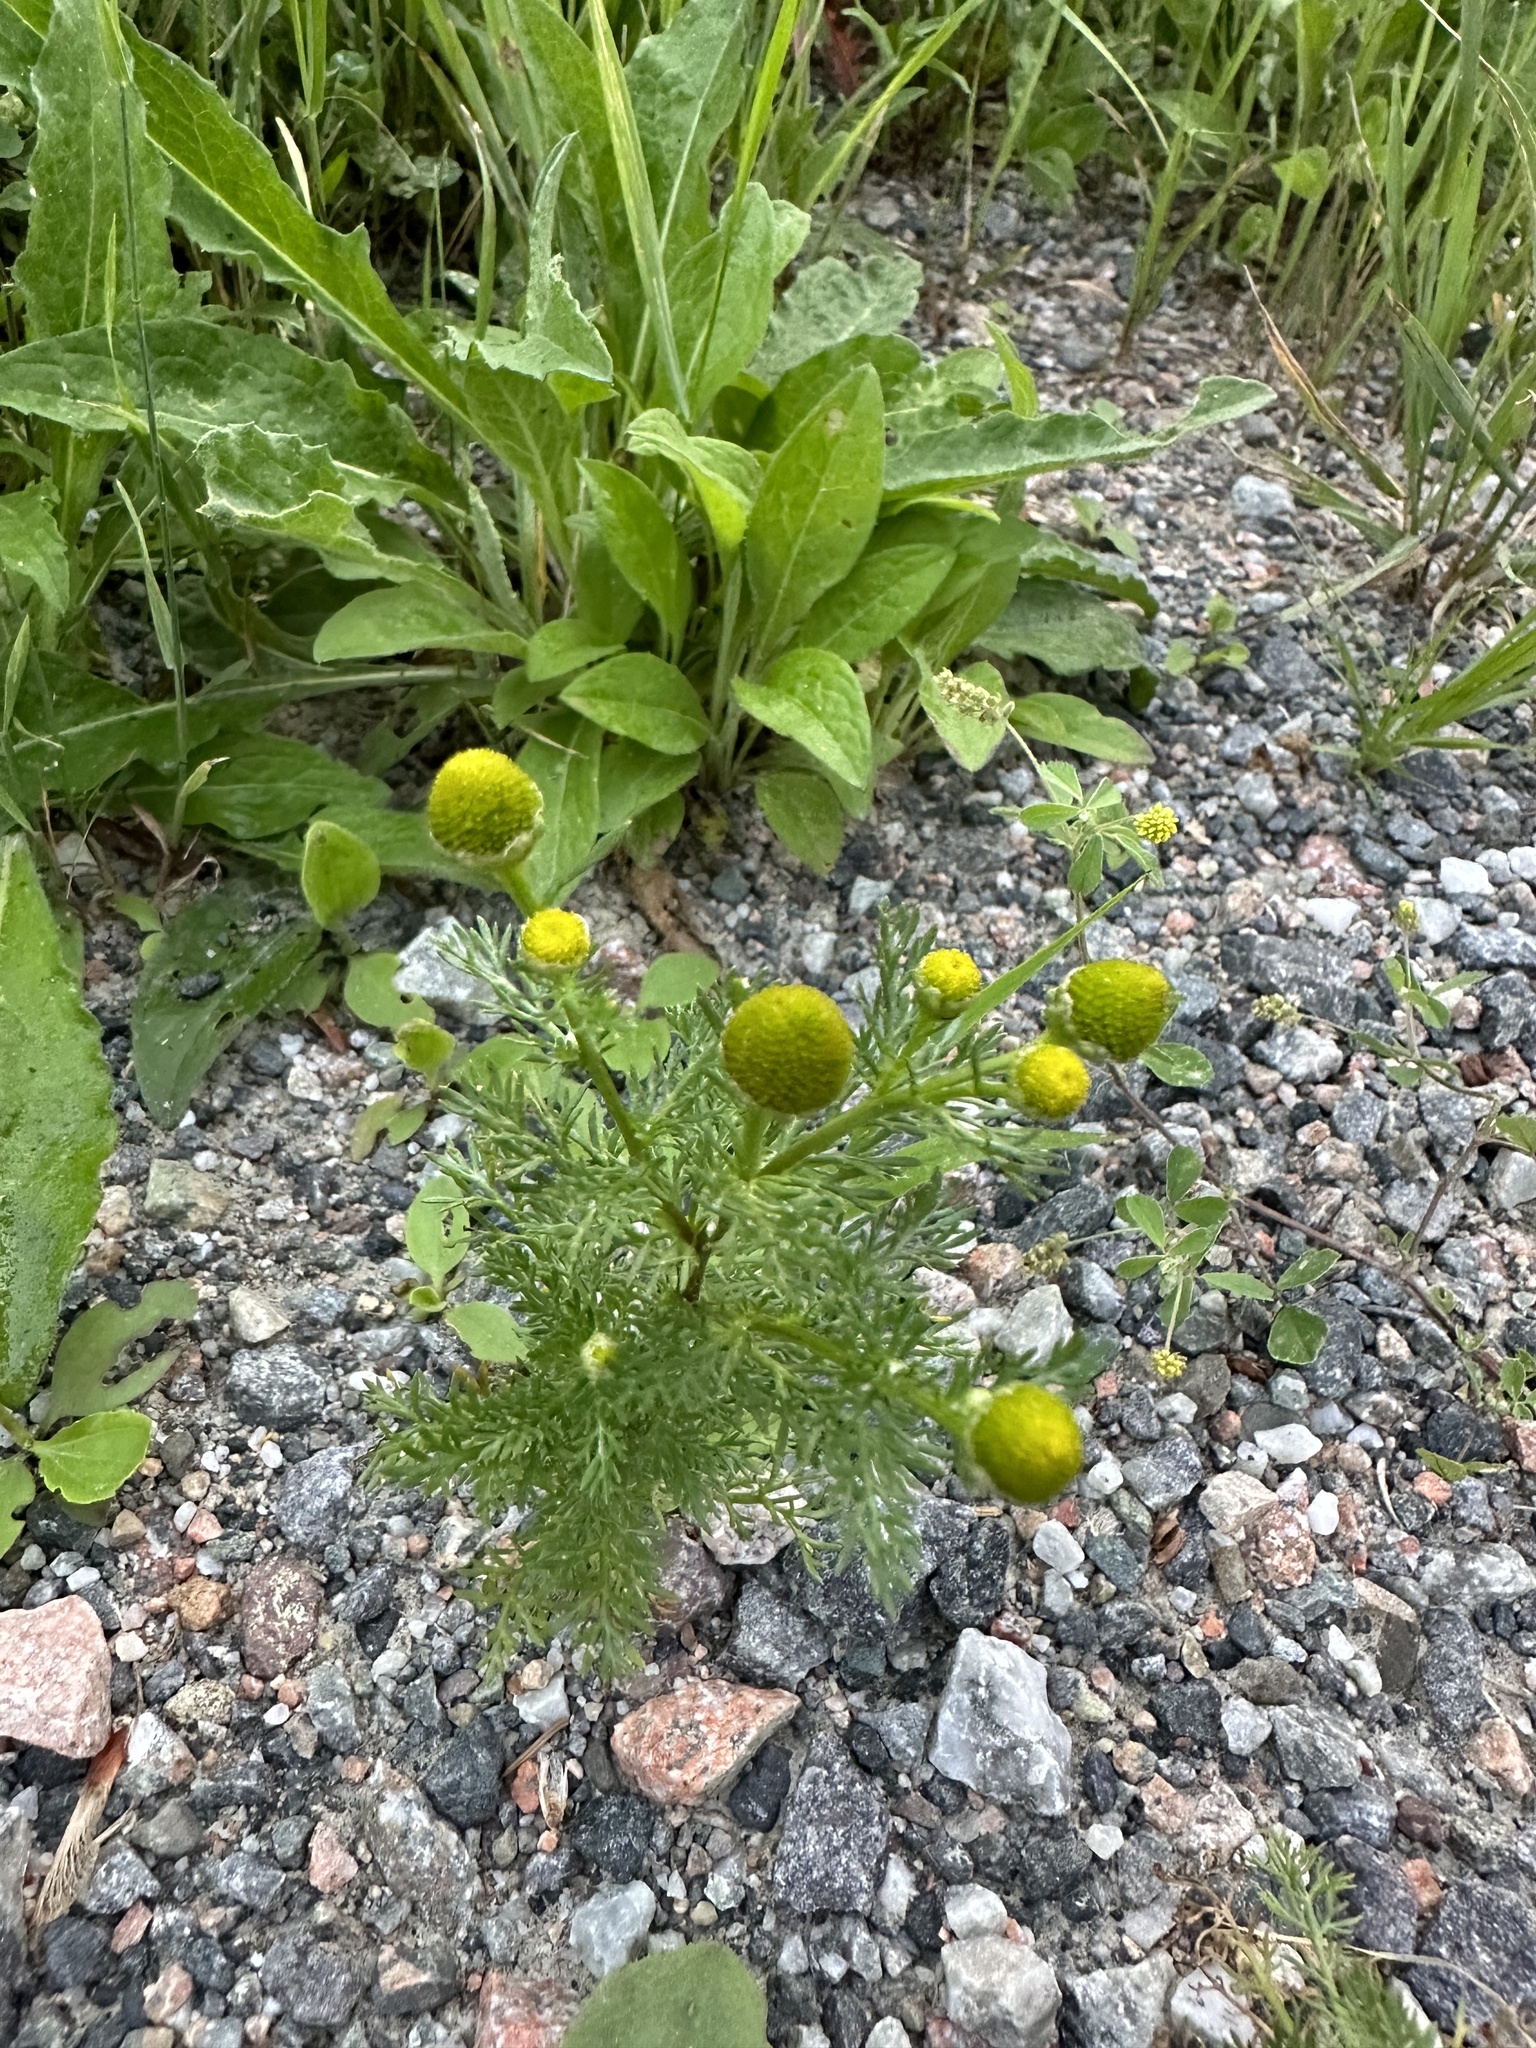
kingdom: Plantae
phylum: Tracheophyta
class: Magnoliopsida
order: Asterales
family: Asteraceae
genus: Matricaria
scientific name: Matricaria discoidea
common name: Disc mayweed
